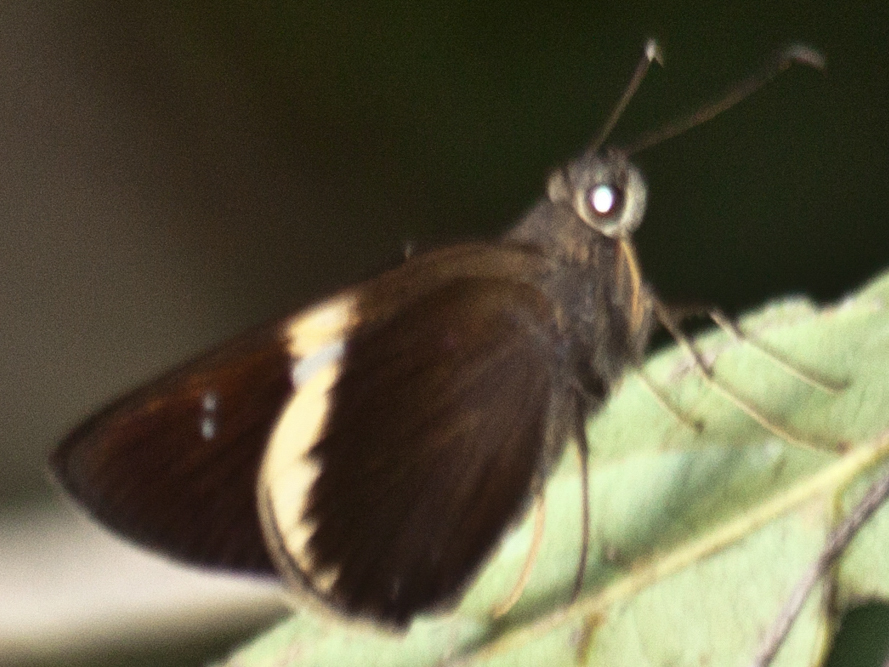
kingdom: Animalia
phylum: Arthropoda
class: Insecta
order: Lepidoptera
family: Hesperiidae
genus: Lotongus
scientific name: Lotongus calathus
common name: White-tipped palmer
